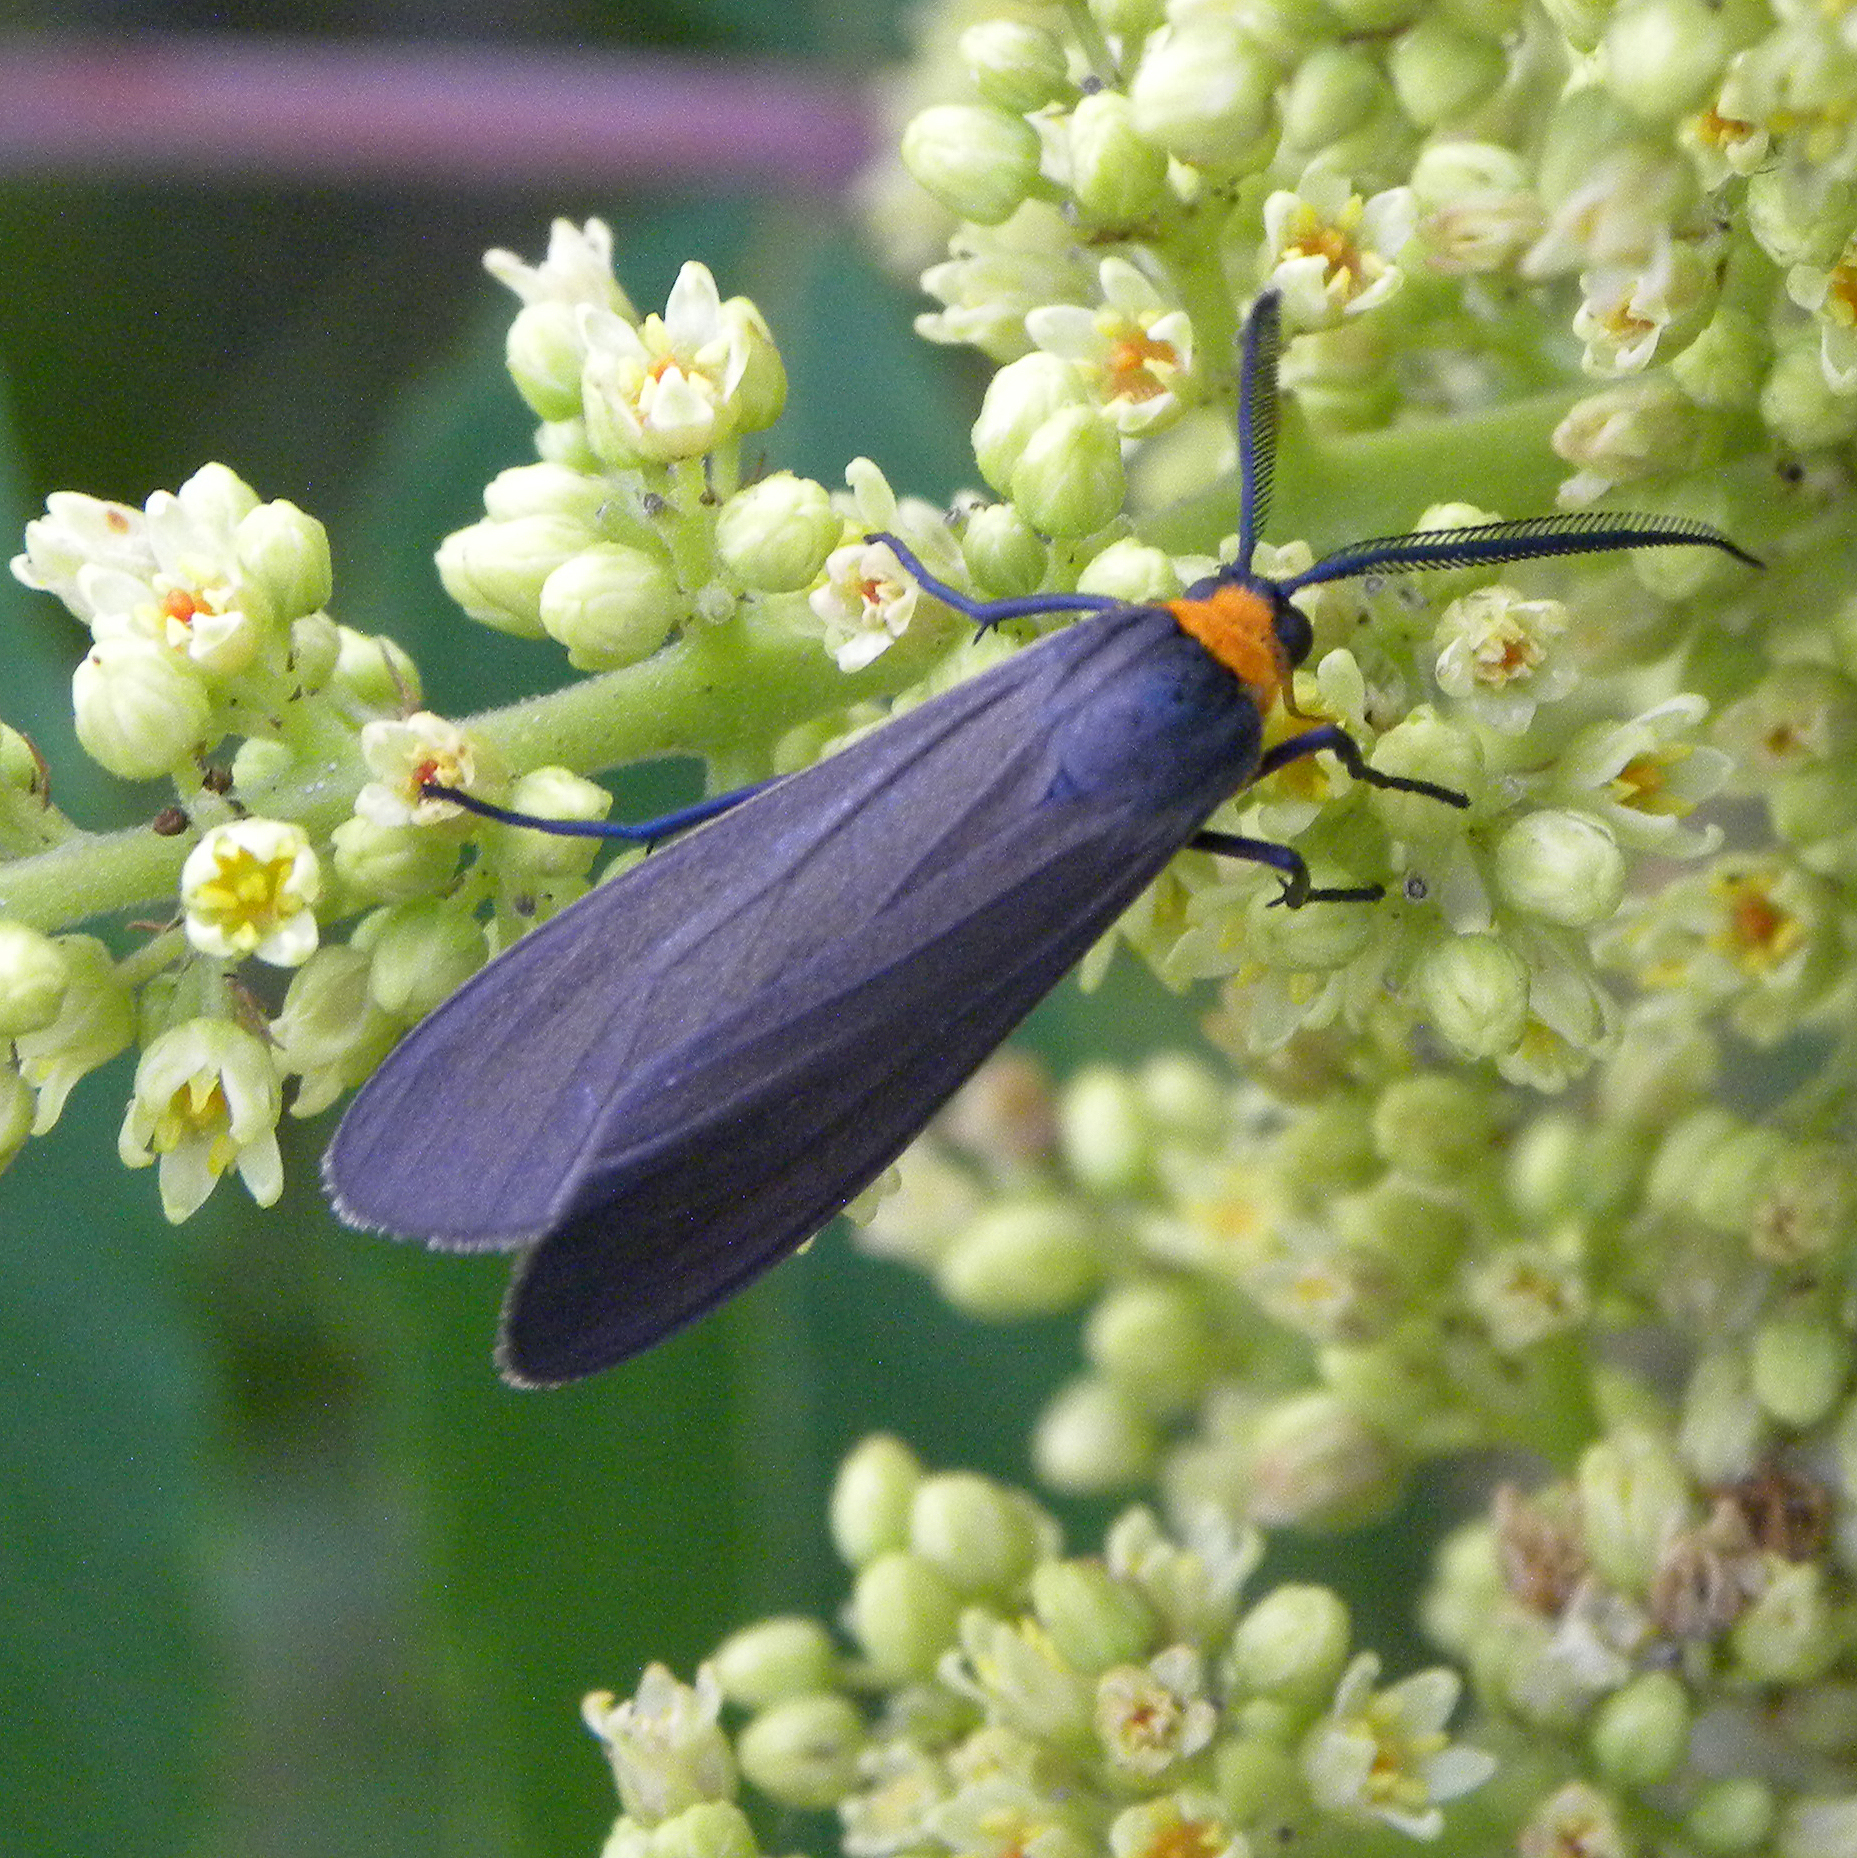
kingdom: Animalia
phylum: Arthropoda
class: Insecta
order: Lepidoptera
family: Erebidae
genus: Cisseps
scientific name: Cisseps fulvicollis
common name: Yellow-collared scape moth
